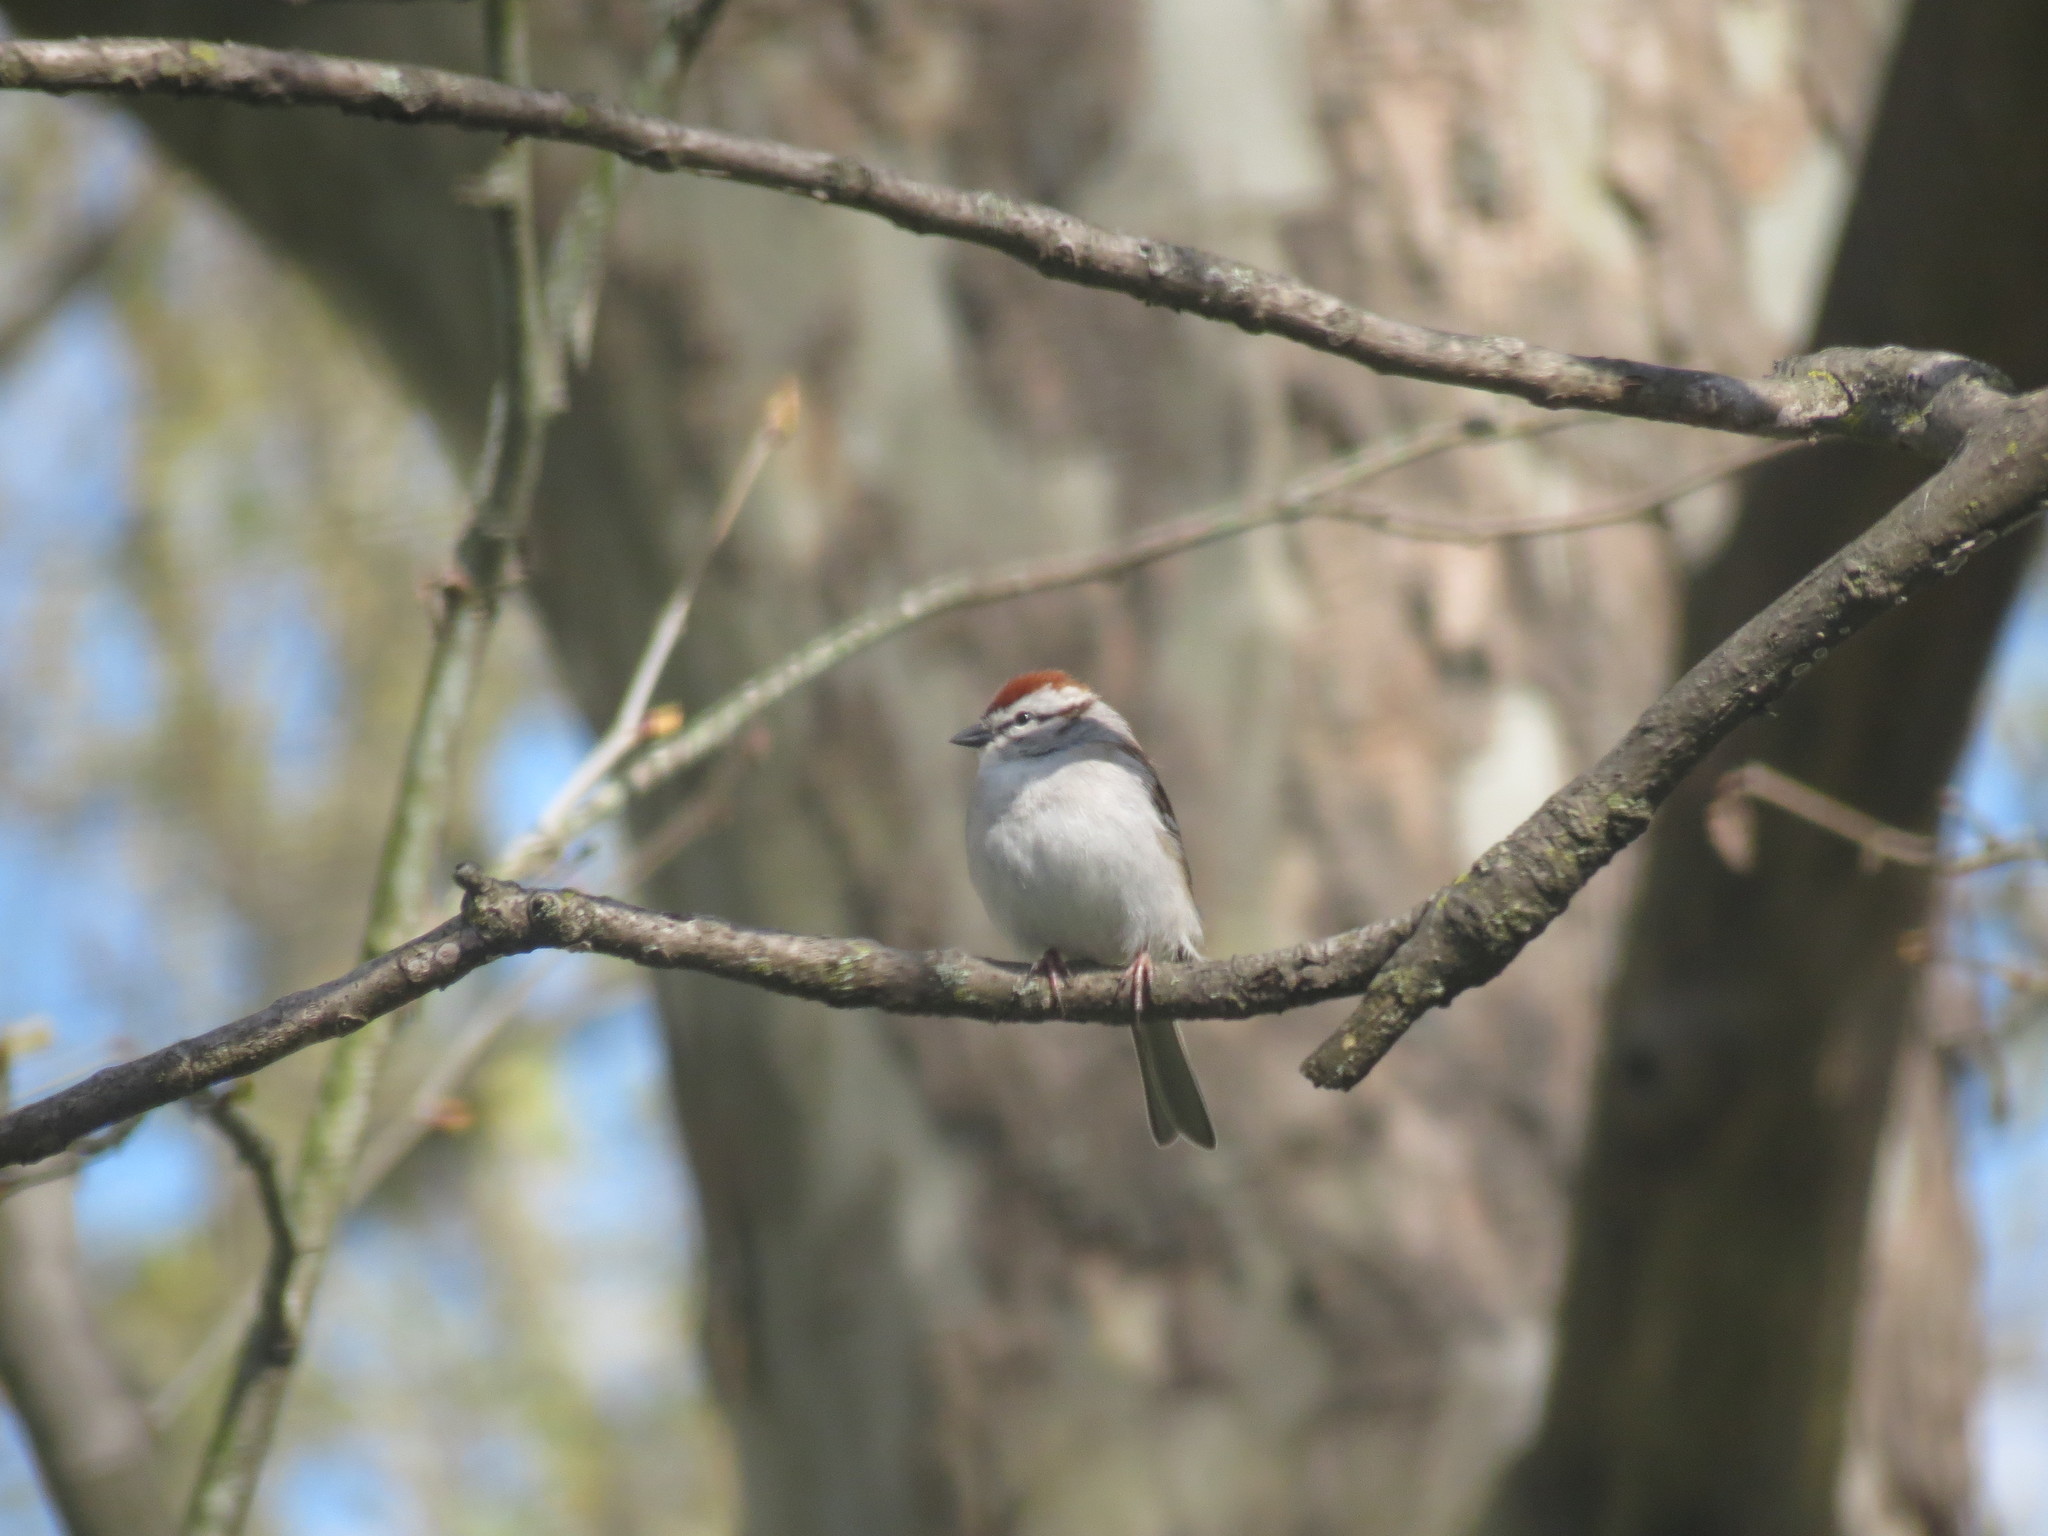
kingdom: Animalia
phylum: Chordata
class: Aves
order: Passeriformes
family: Passerellidae
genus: Spizella
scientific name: Spizella passerina
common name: Chipping sparrow
